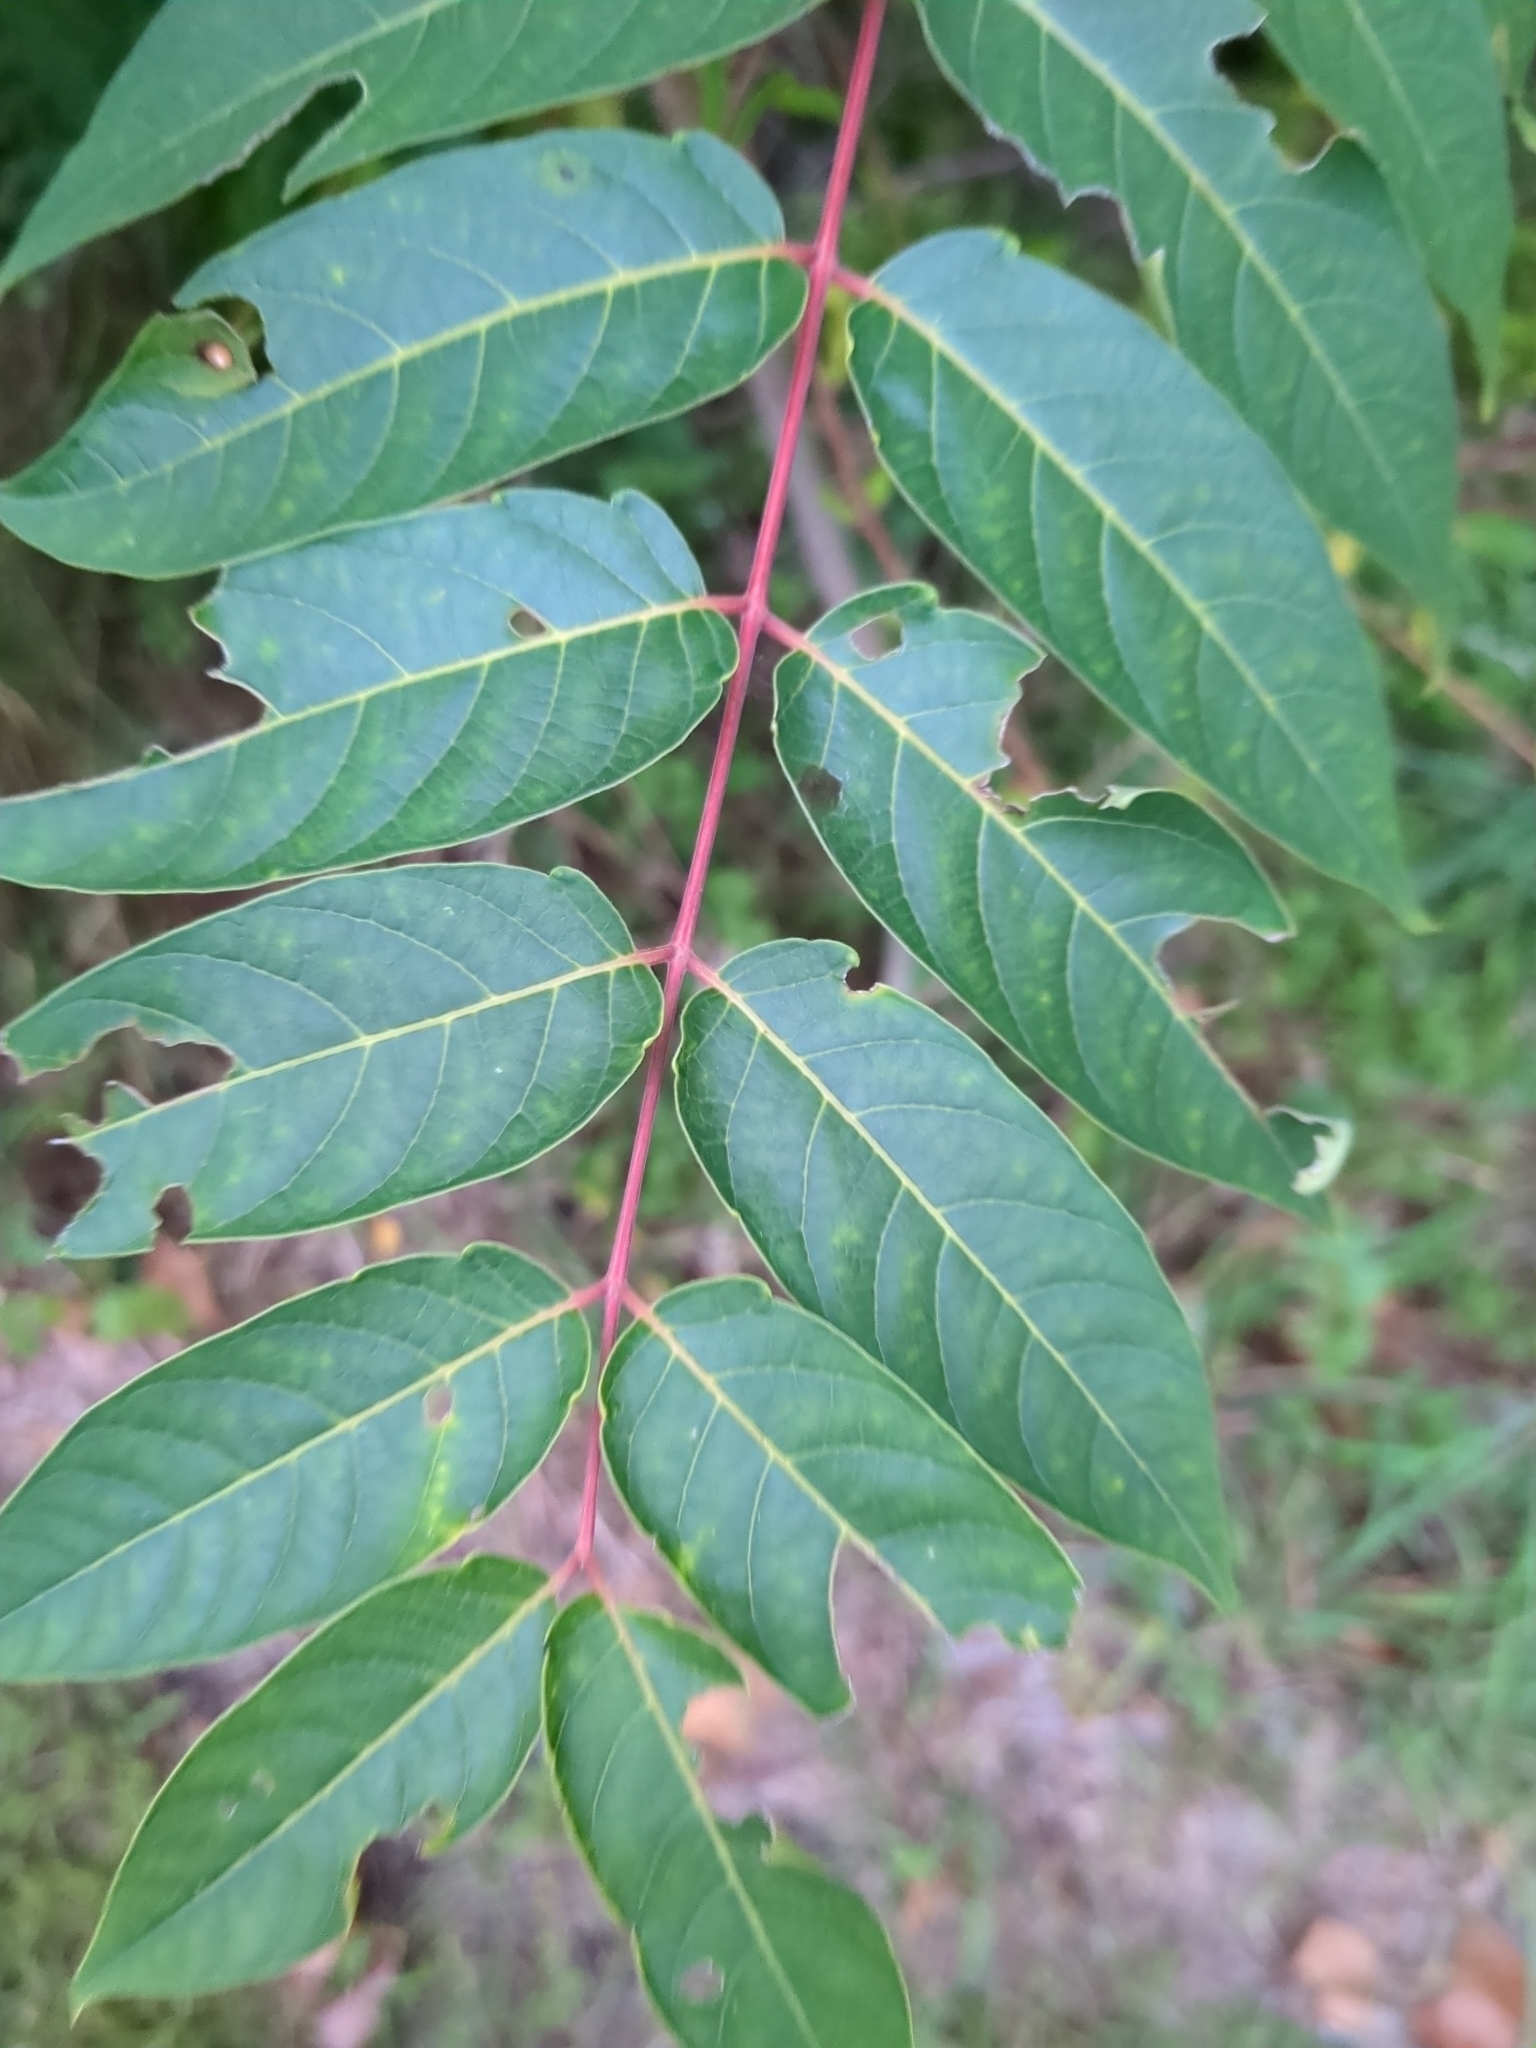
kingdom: Plantae
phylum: Tracheophyta
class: Magnoliopsida
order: Sapindales
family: Simaroubaceae
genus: Ailanthus
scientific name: Ailanthus altissima
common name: Tree-of-heaven
